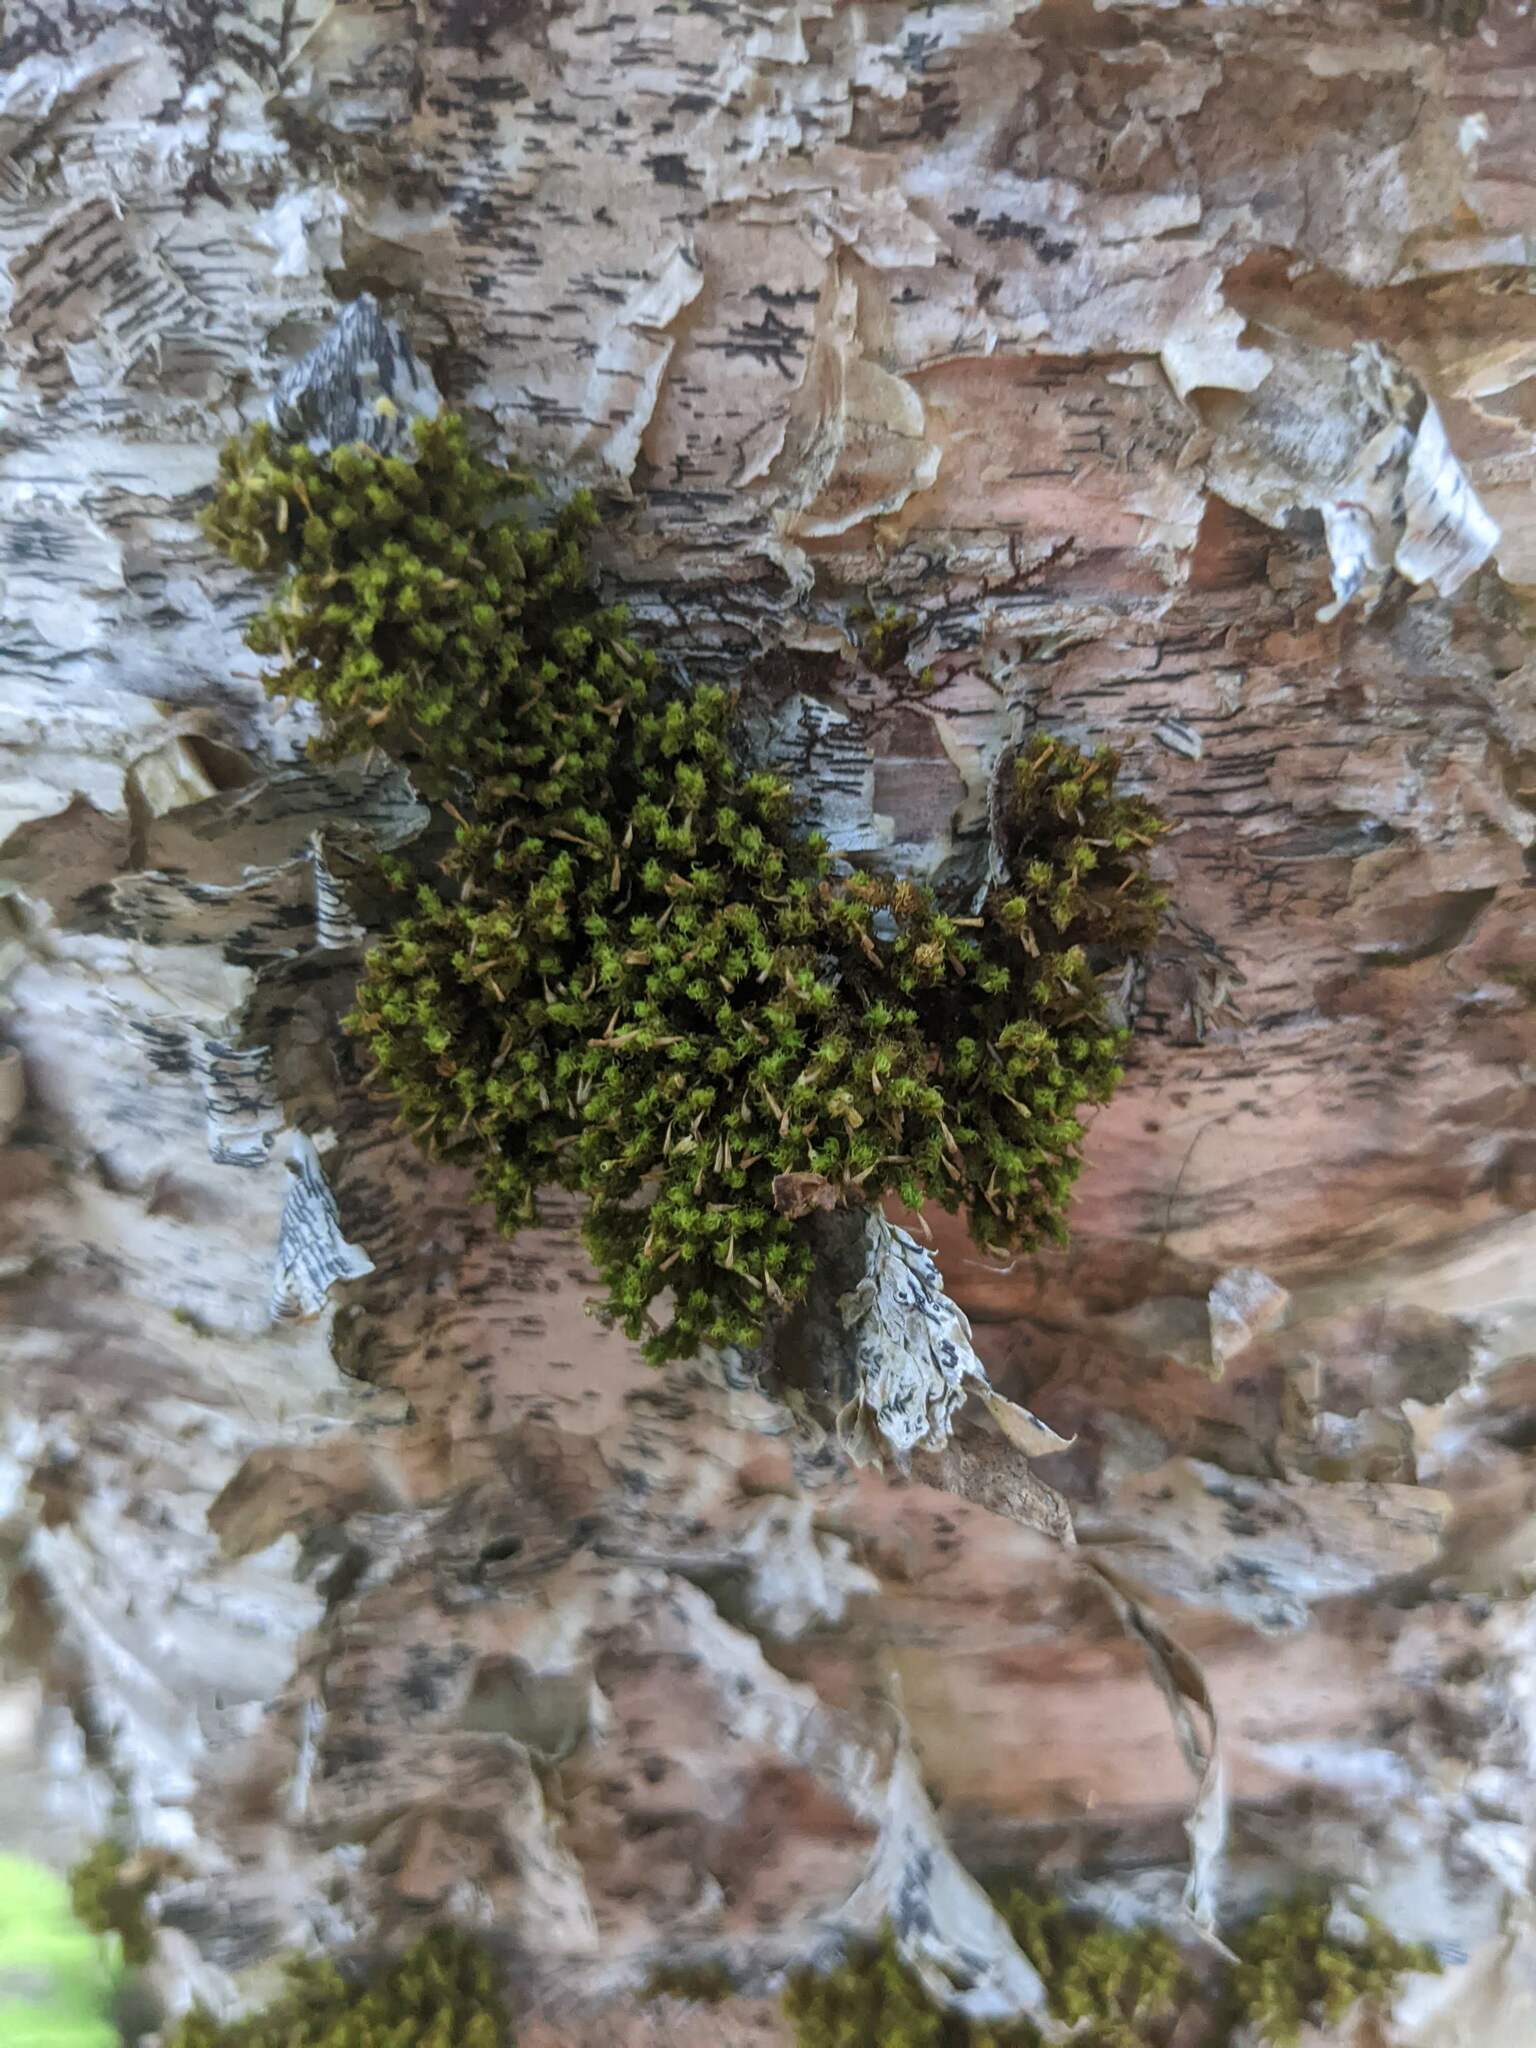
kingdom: Plantae
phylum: Bryophyta
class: Bryopsida
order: Orthotrichales
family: Orthotrichaceae
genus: Ulota
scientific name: Ulota crispa
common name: Crisped pincushion moss
